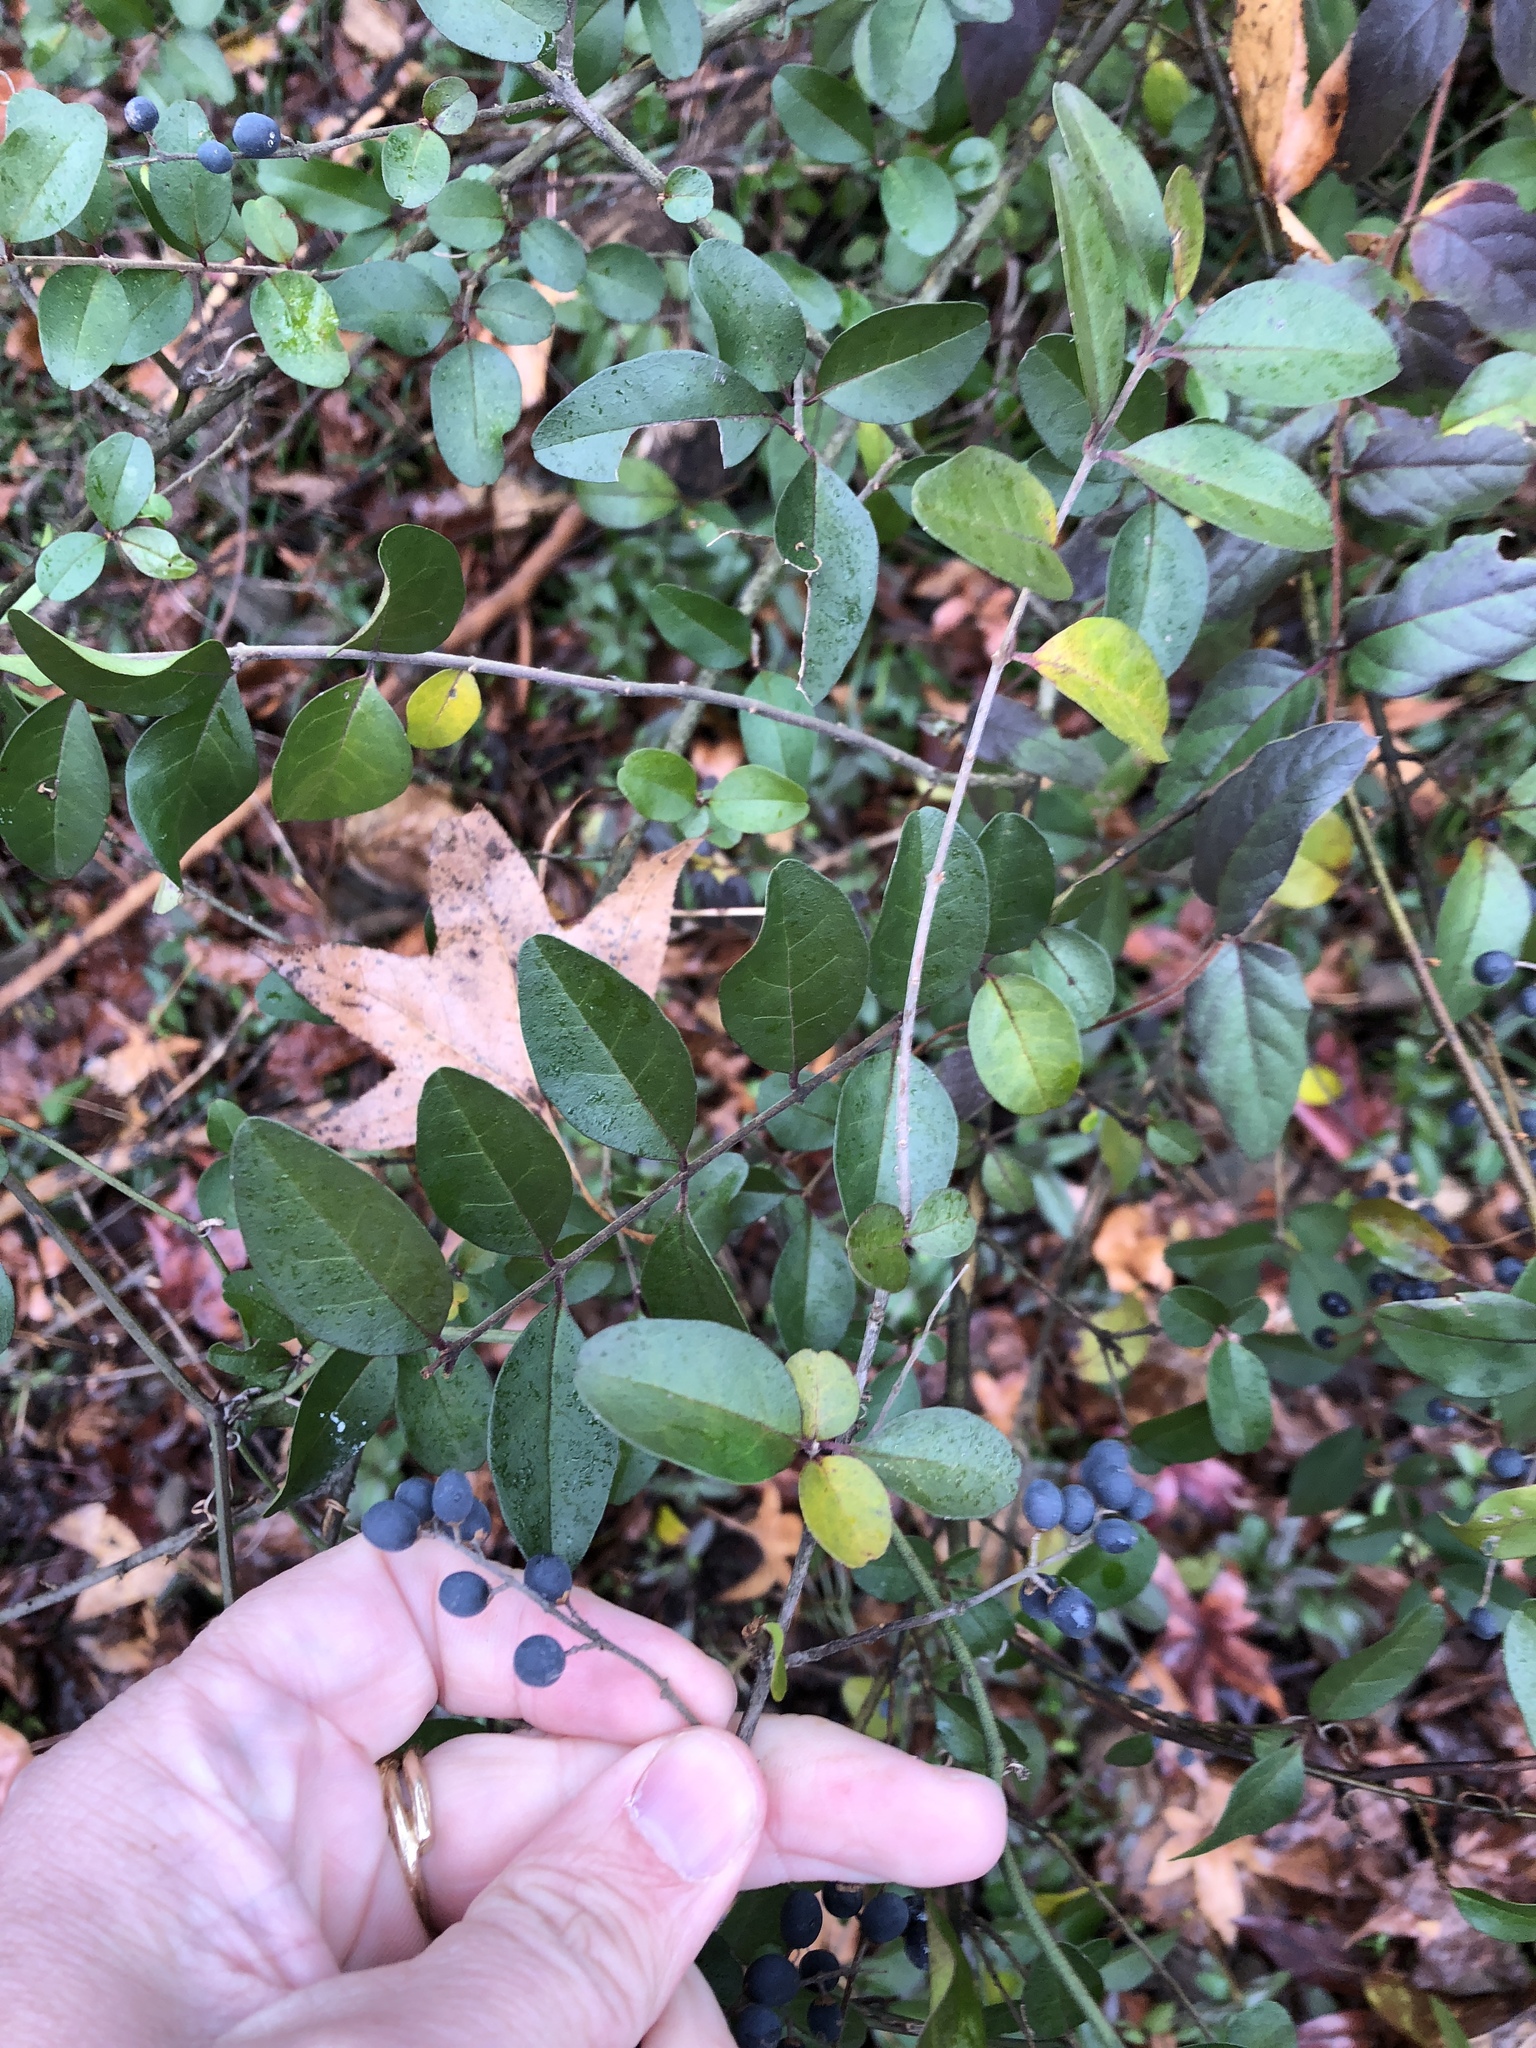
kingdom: Plantae
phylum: Tracheophyta
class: Magnoliopsida
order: Lamiales
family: Oleaceae
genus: Ligustrum
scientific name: Ligustrum sinense
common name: Chinese privet
